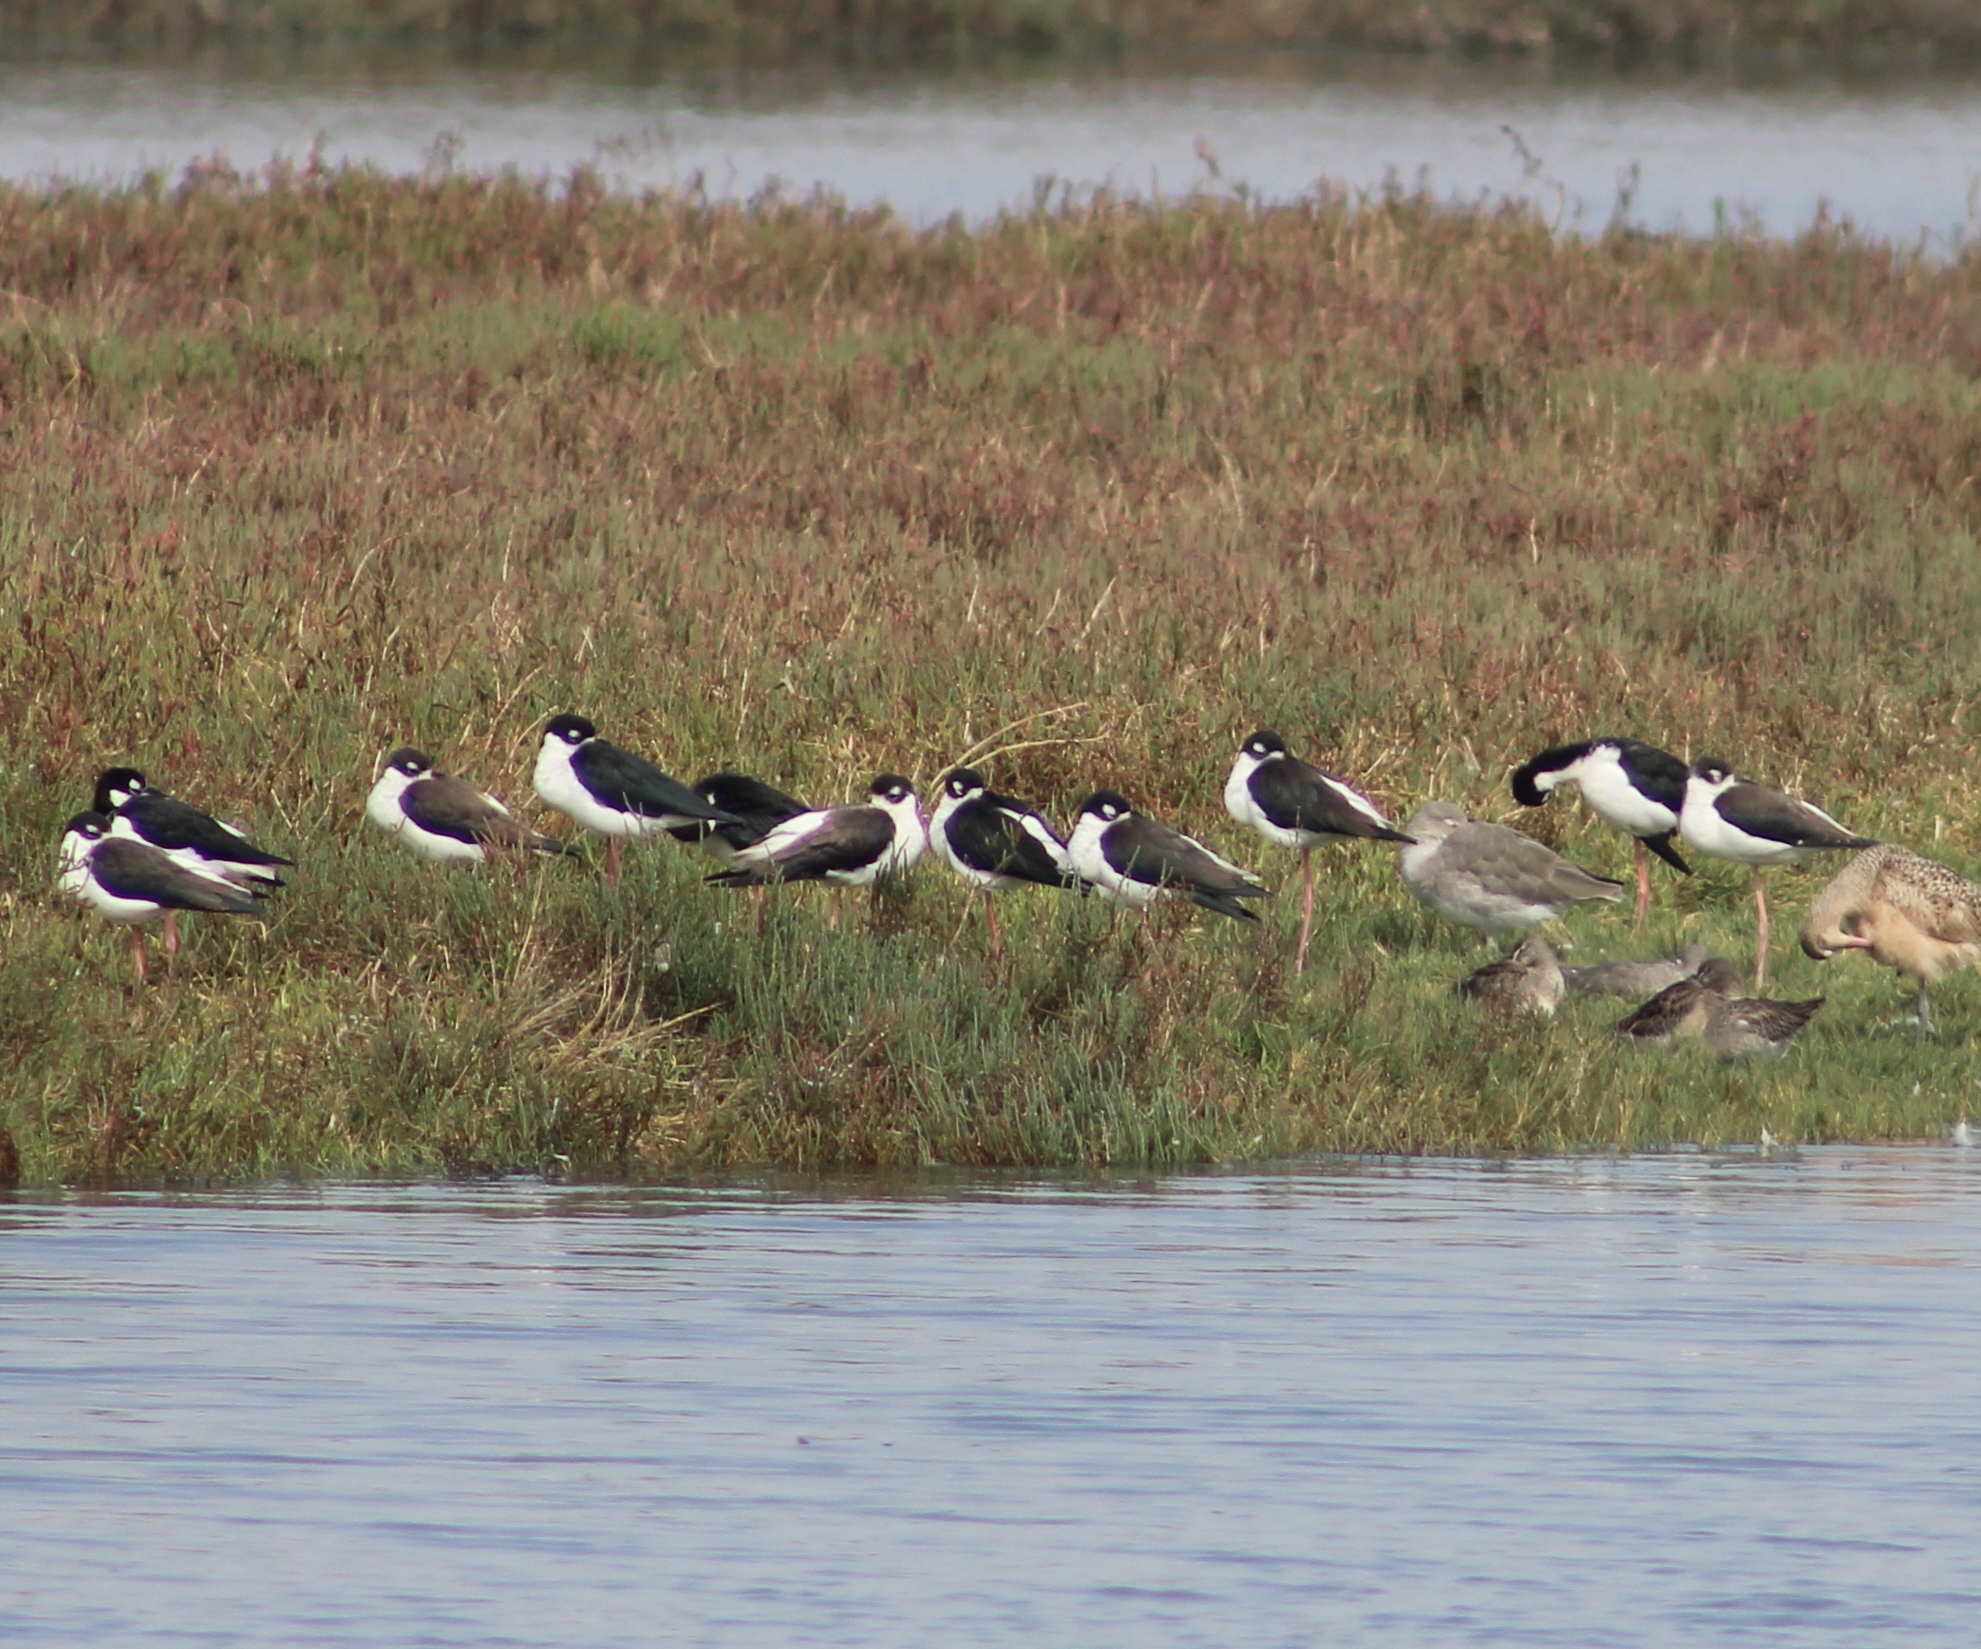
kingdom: Animalia
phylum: Chordata
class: Aves
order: Charadriiformes
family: Recurvirostridae
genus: Himantopus
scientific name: Himantopus mexicanus
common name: Black-necked stilt
